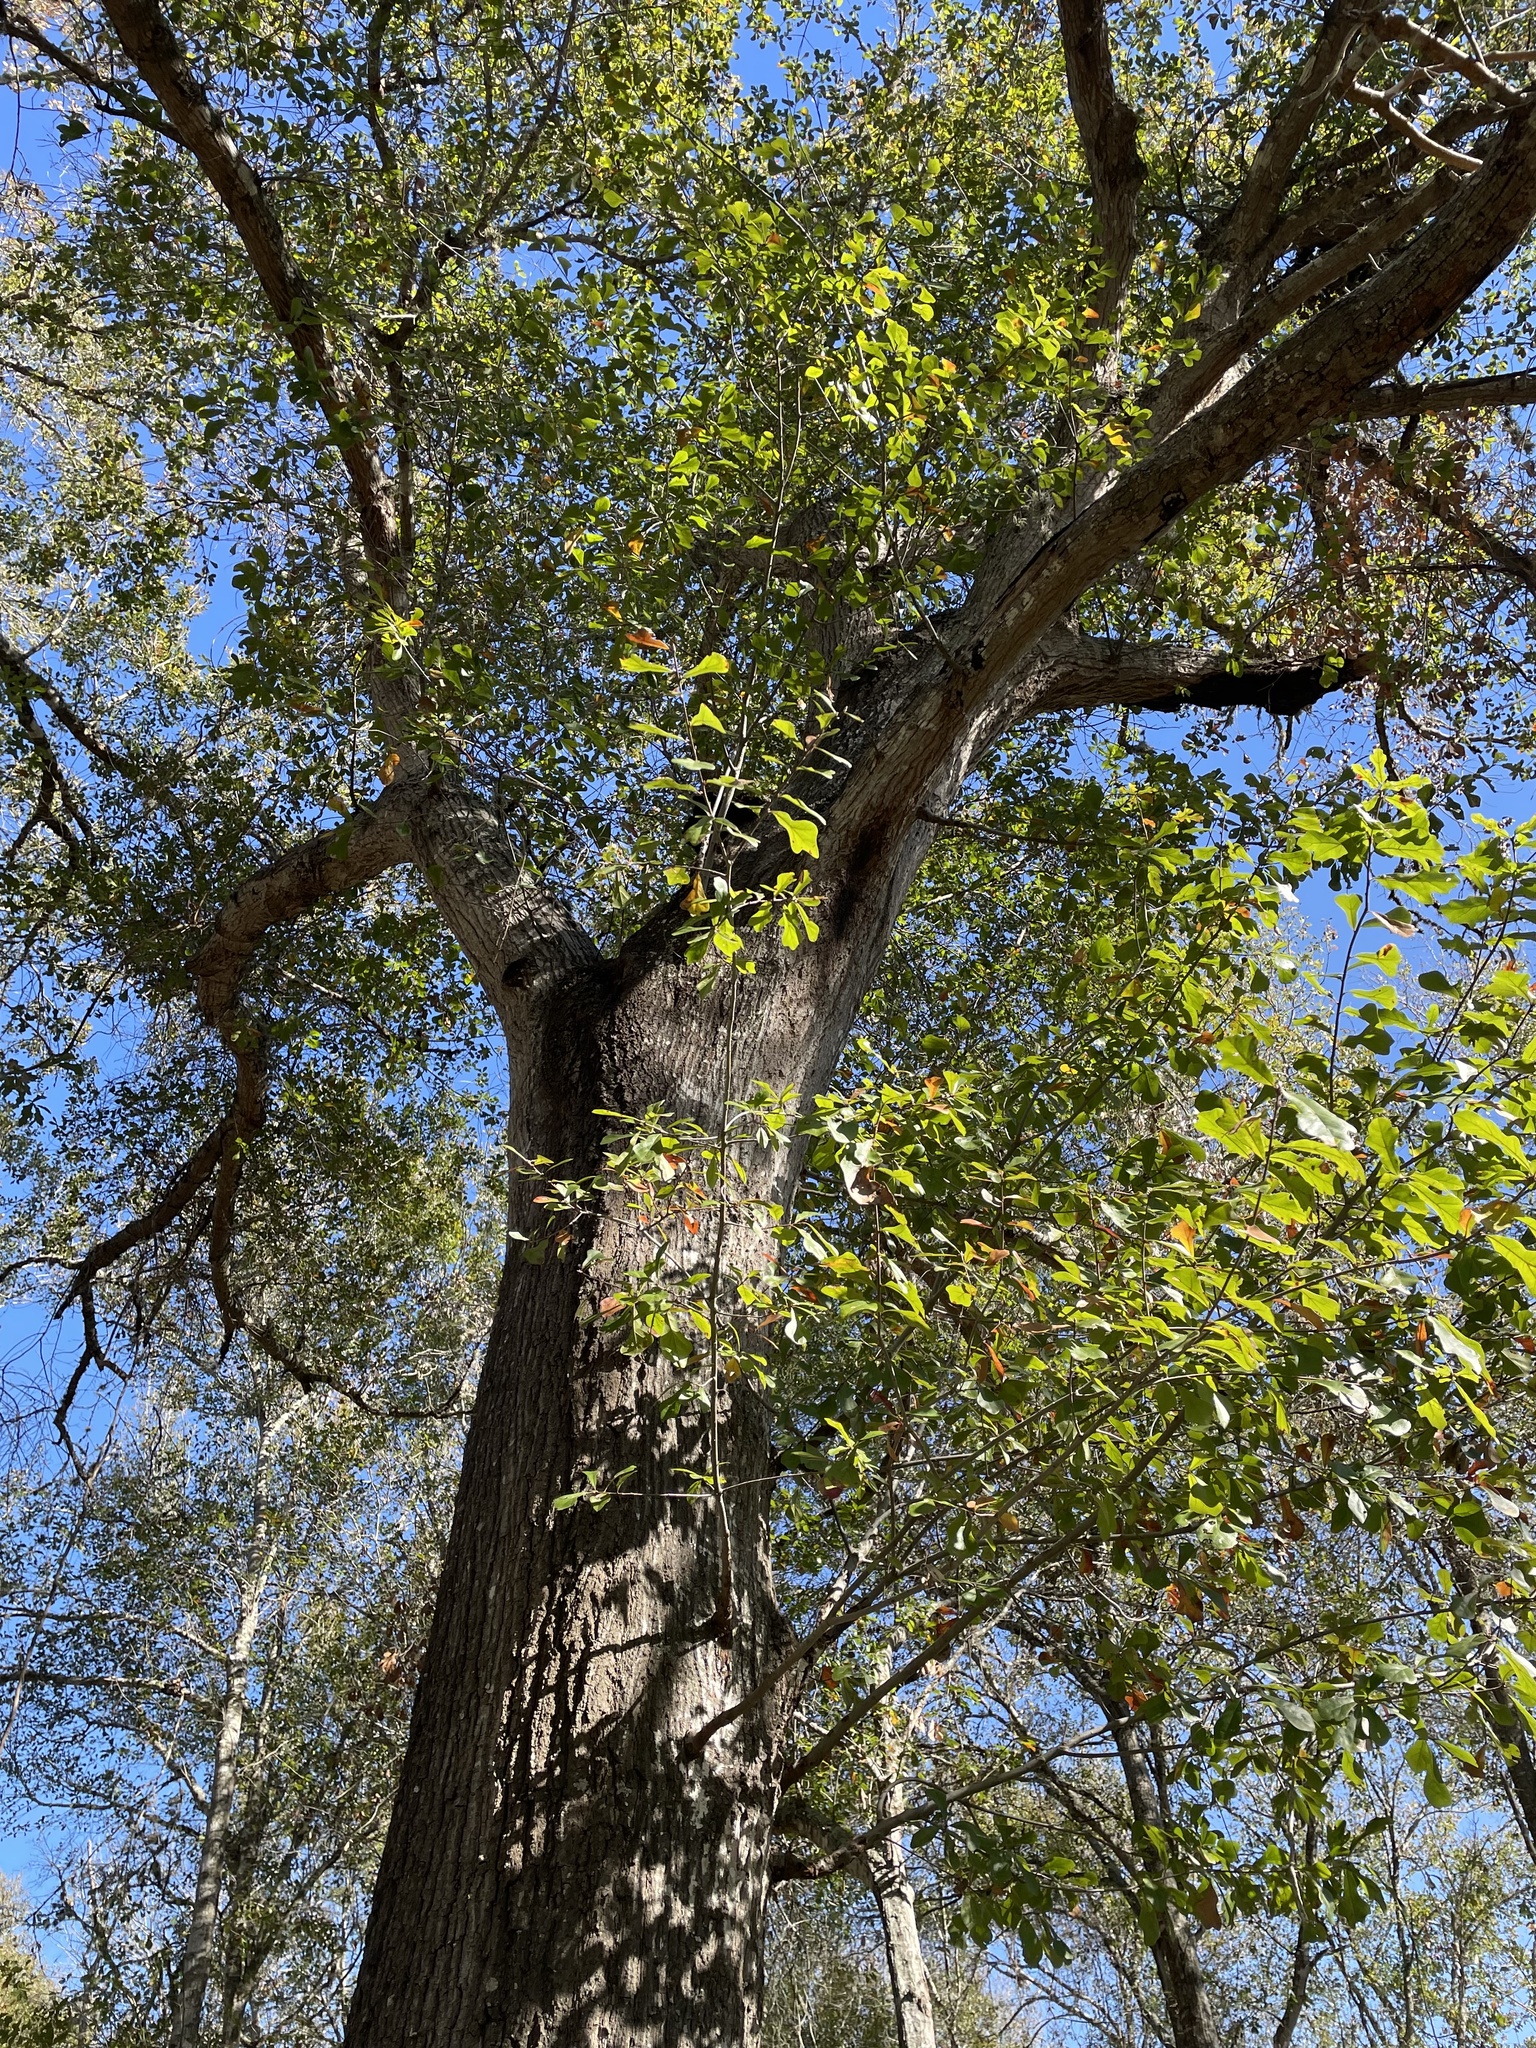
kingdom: Plantae
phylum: Tracheophyta
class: Magnoliopsida
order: Fagales
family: Fagaceae
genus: Quercus
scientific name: Quercus nigra
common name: Water oak
